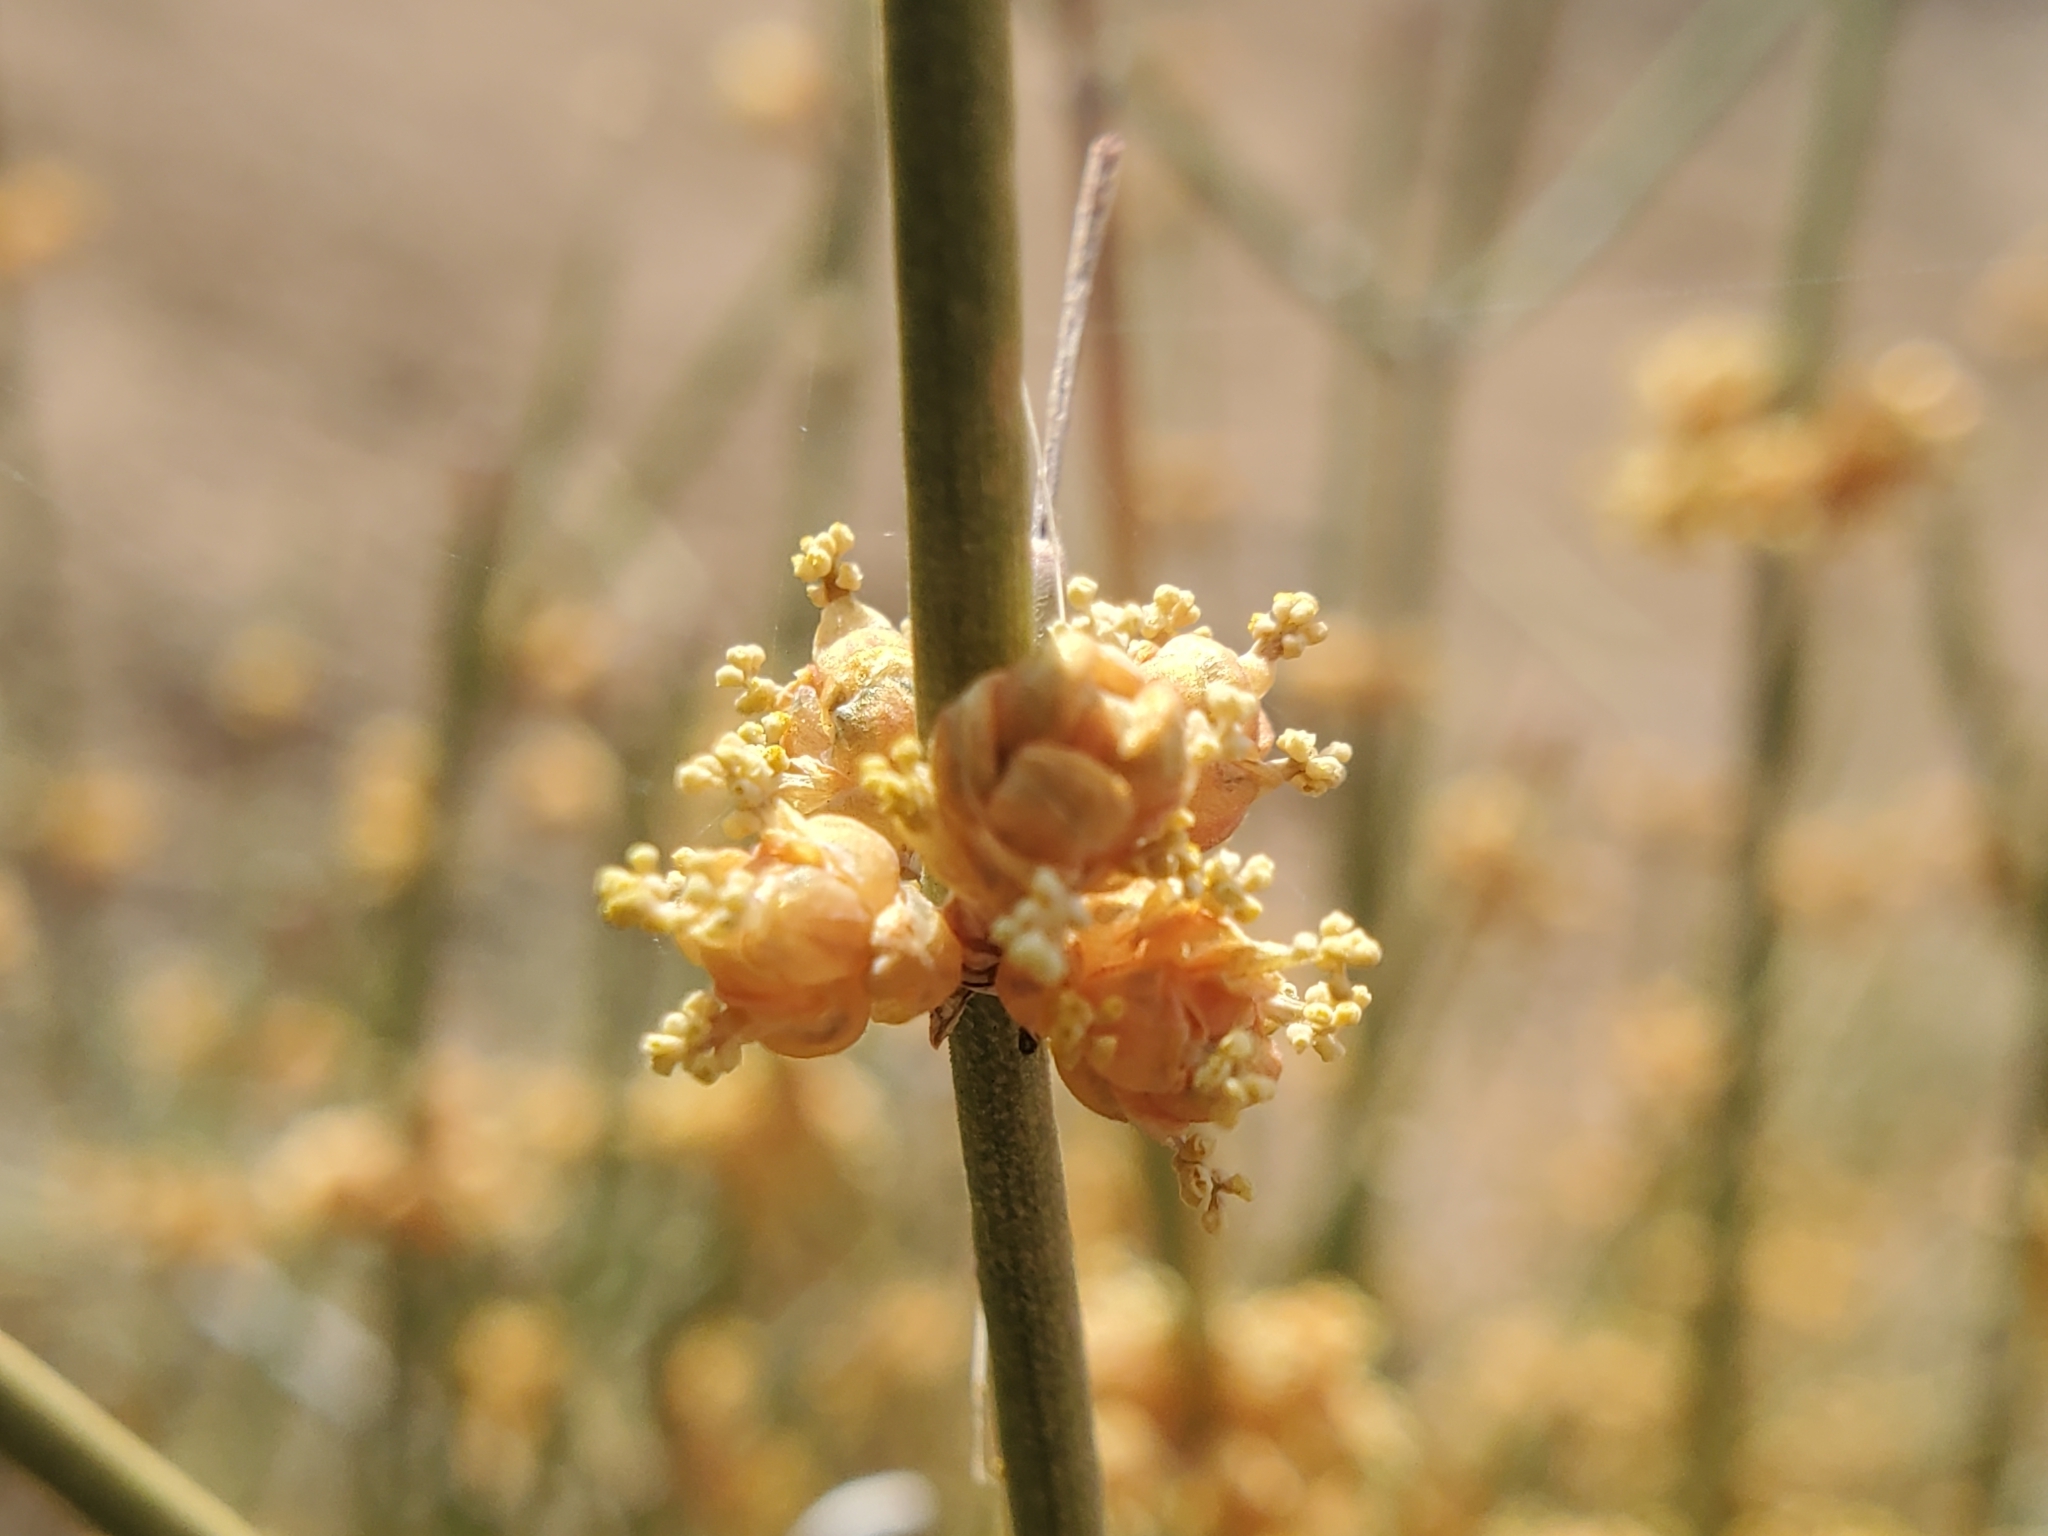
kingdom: Plantae
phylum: Tracheophyta
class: Gnetopsida
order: Ephedrales
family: Ephedraceae
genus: Ephedra
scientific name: Ephedra aspera
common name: Boundary ephedra
